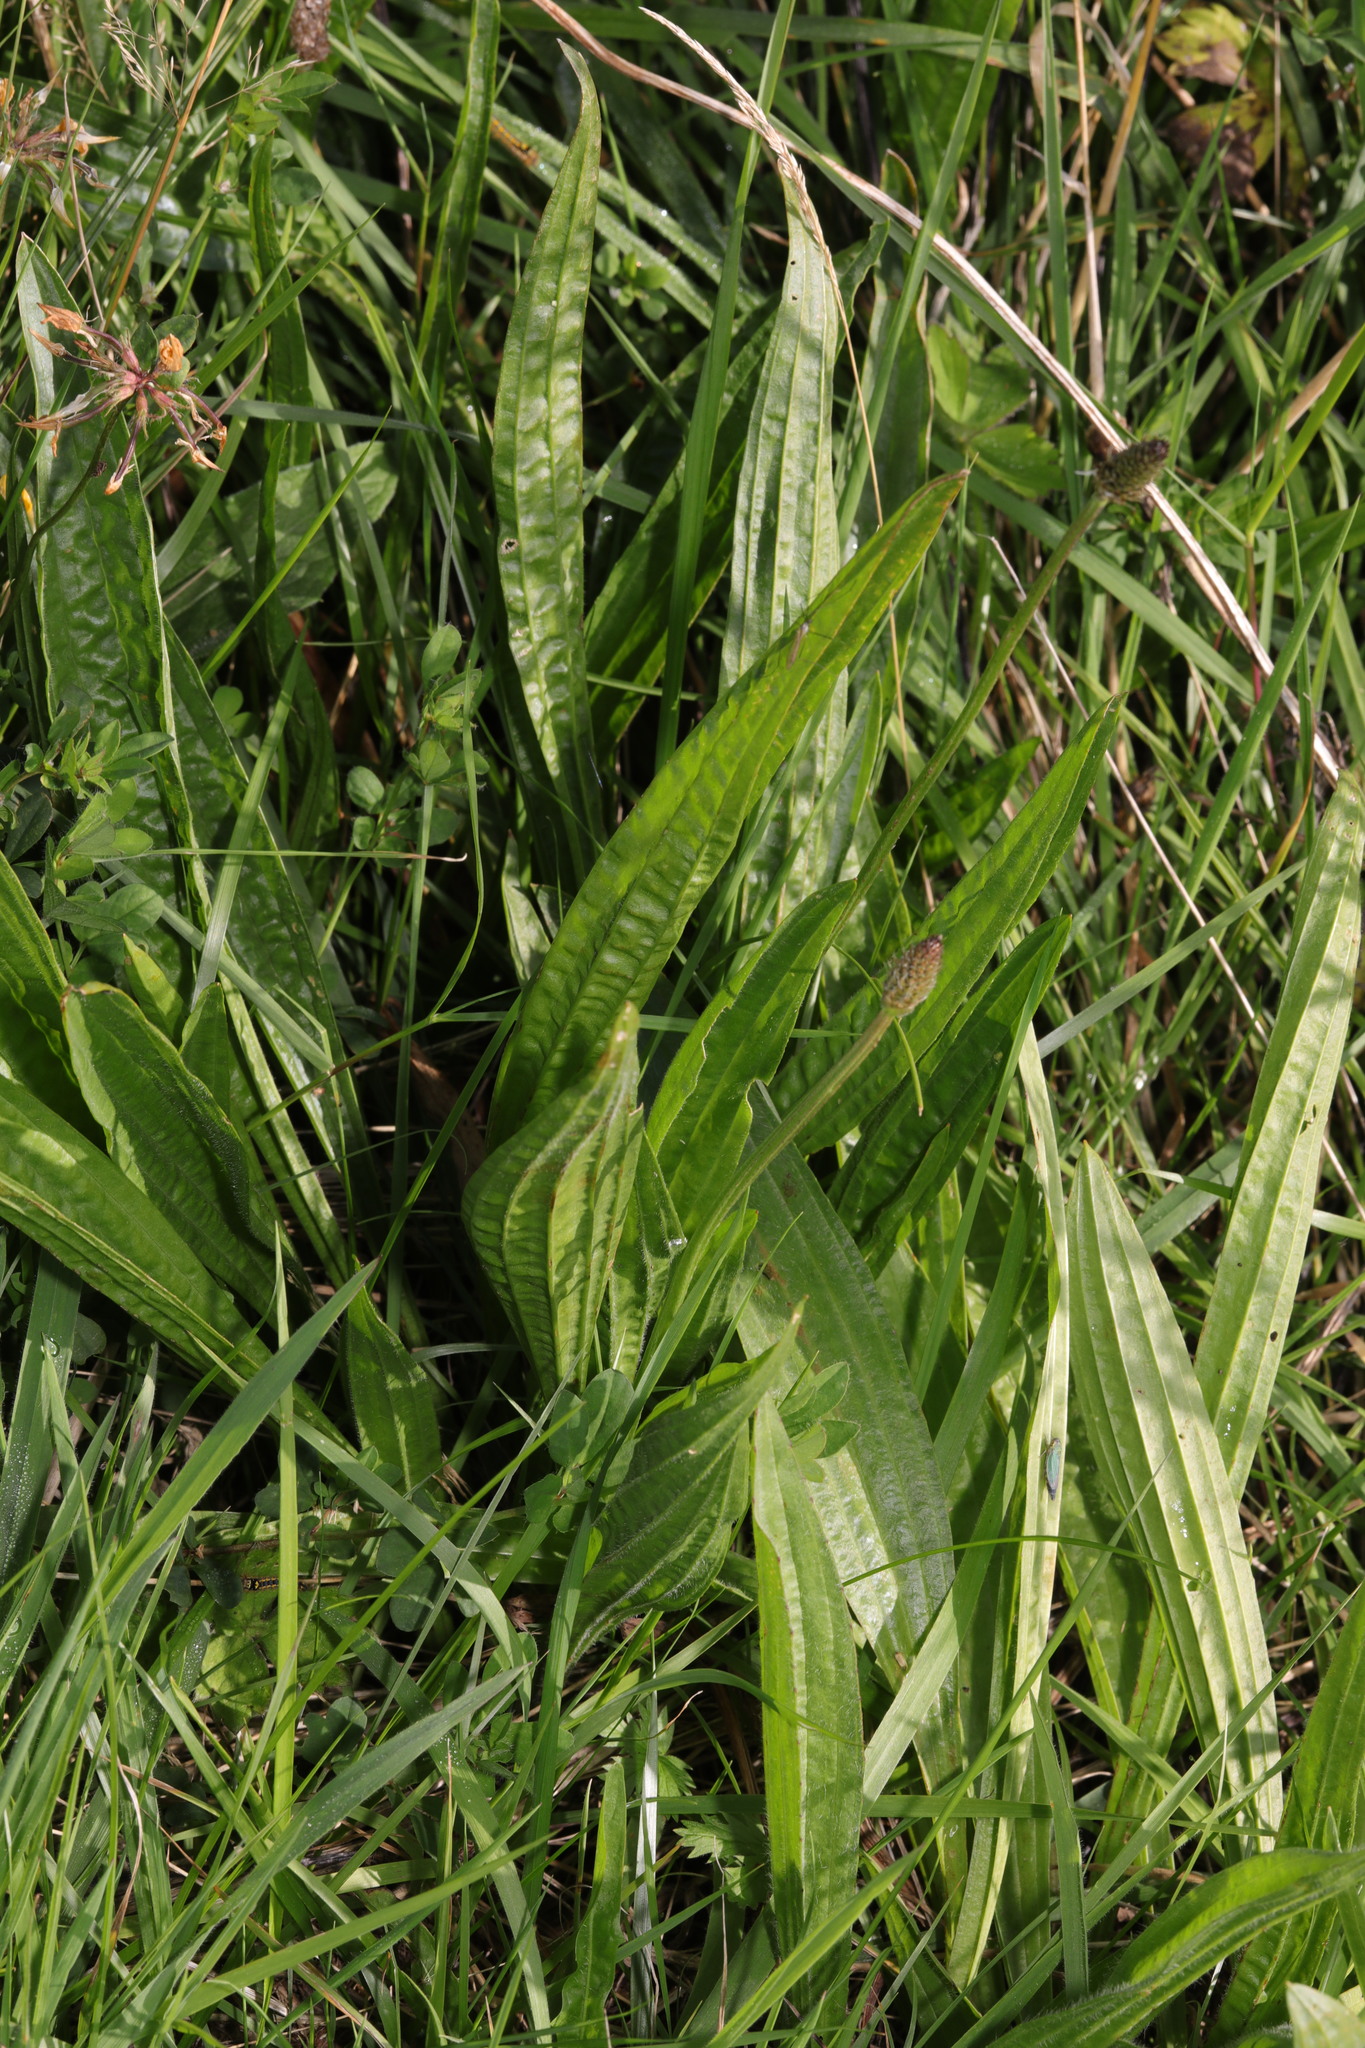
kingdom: Plantae
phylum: Tracheophyta
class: Magnoliopsida
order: Lamiales
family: Plantaginaceae
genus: Plantago
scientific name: Plantago lanceolata
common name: Ribwort plantain
